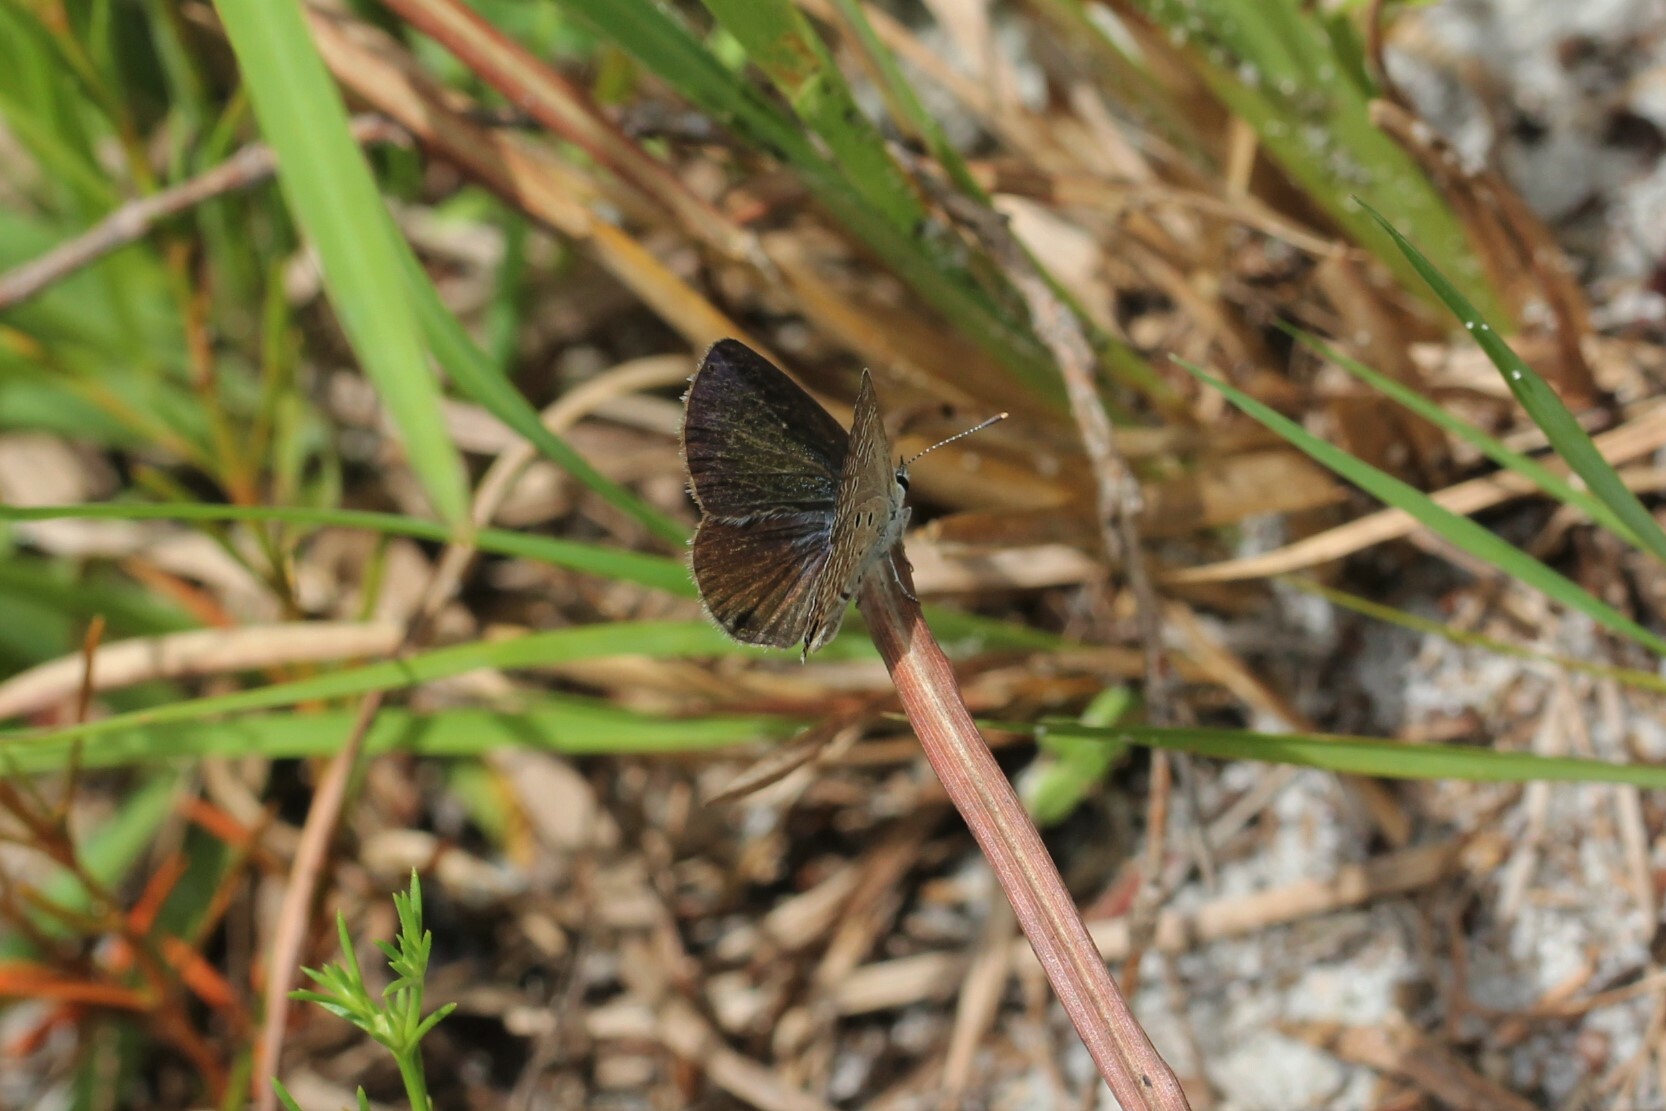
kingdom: Animalia
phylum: Arthropoda
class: Insecta
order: Lepidoptera
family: Lycaenidae
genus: Hemiargus
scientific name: Hemiargus ceraunus
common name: Ceraunus blue
